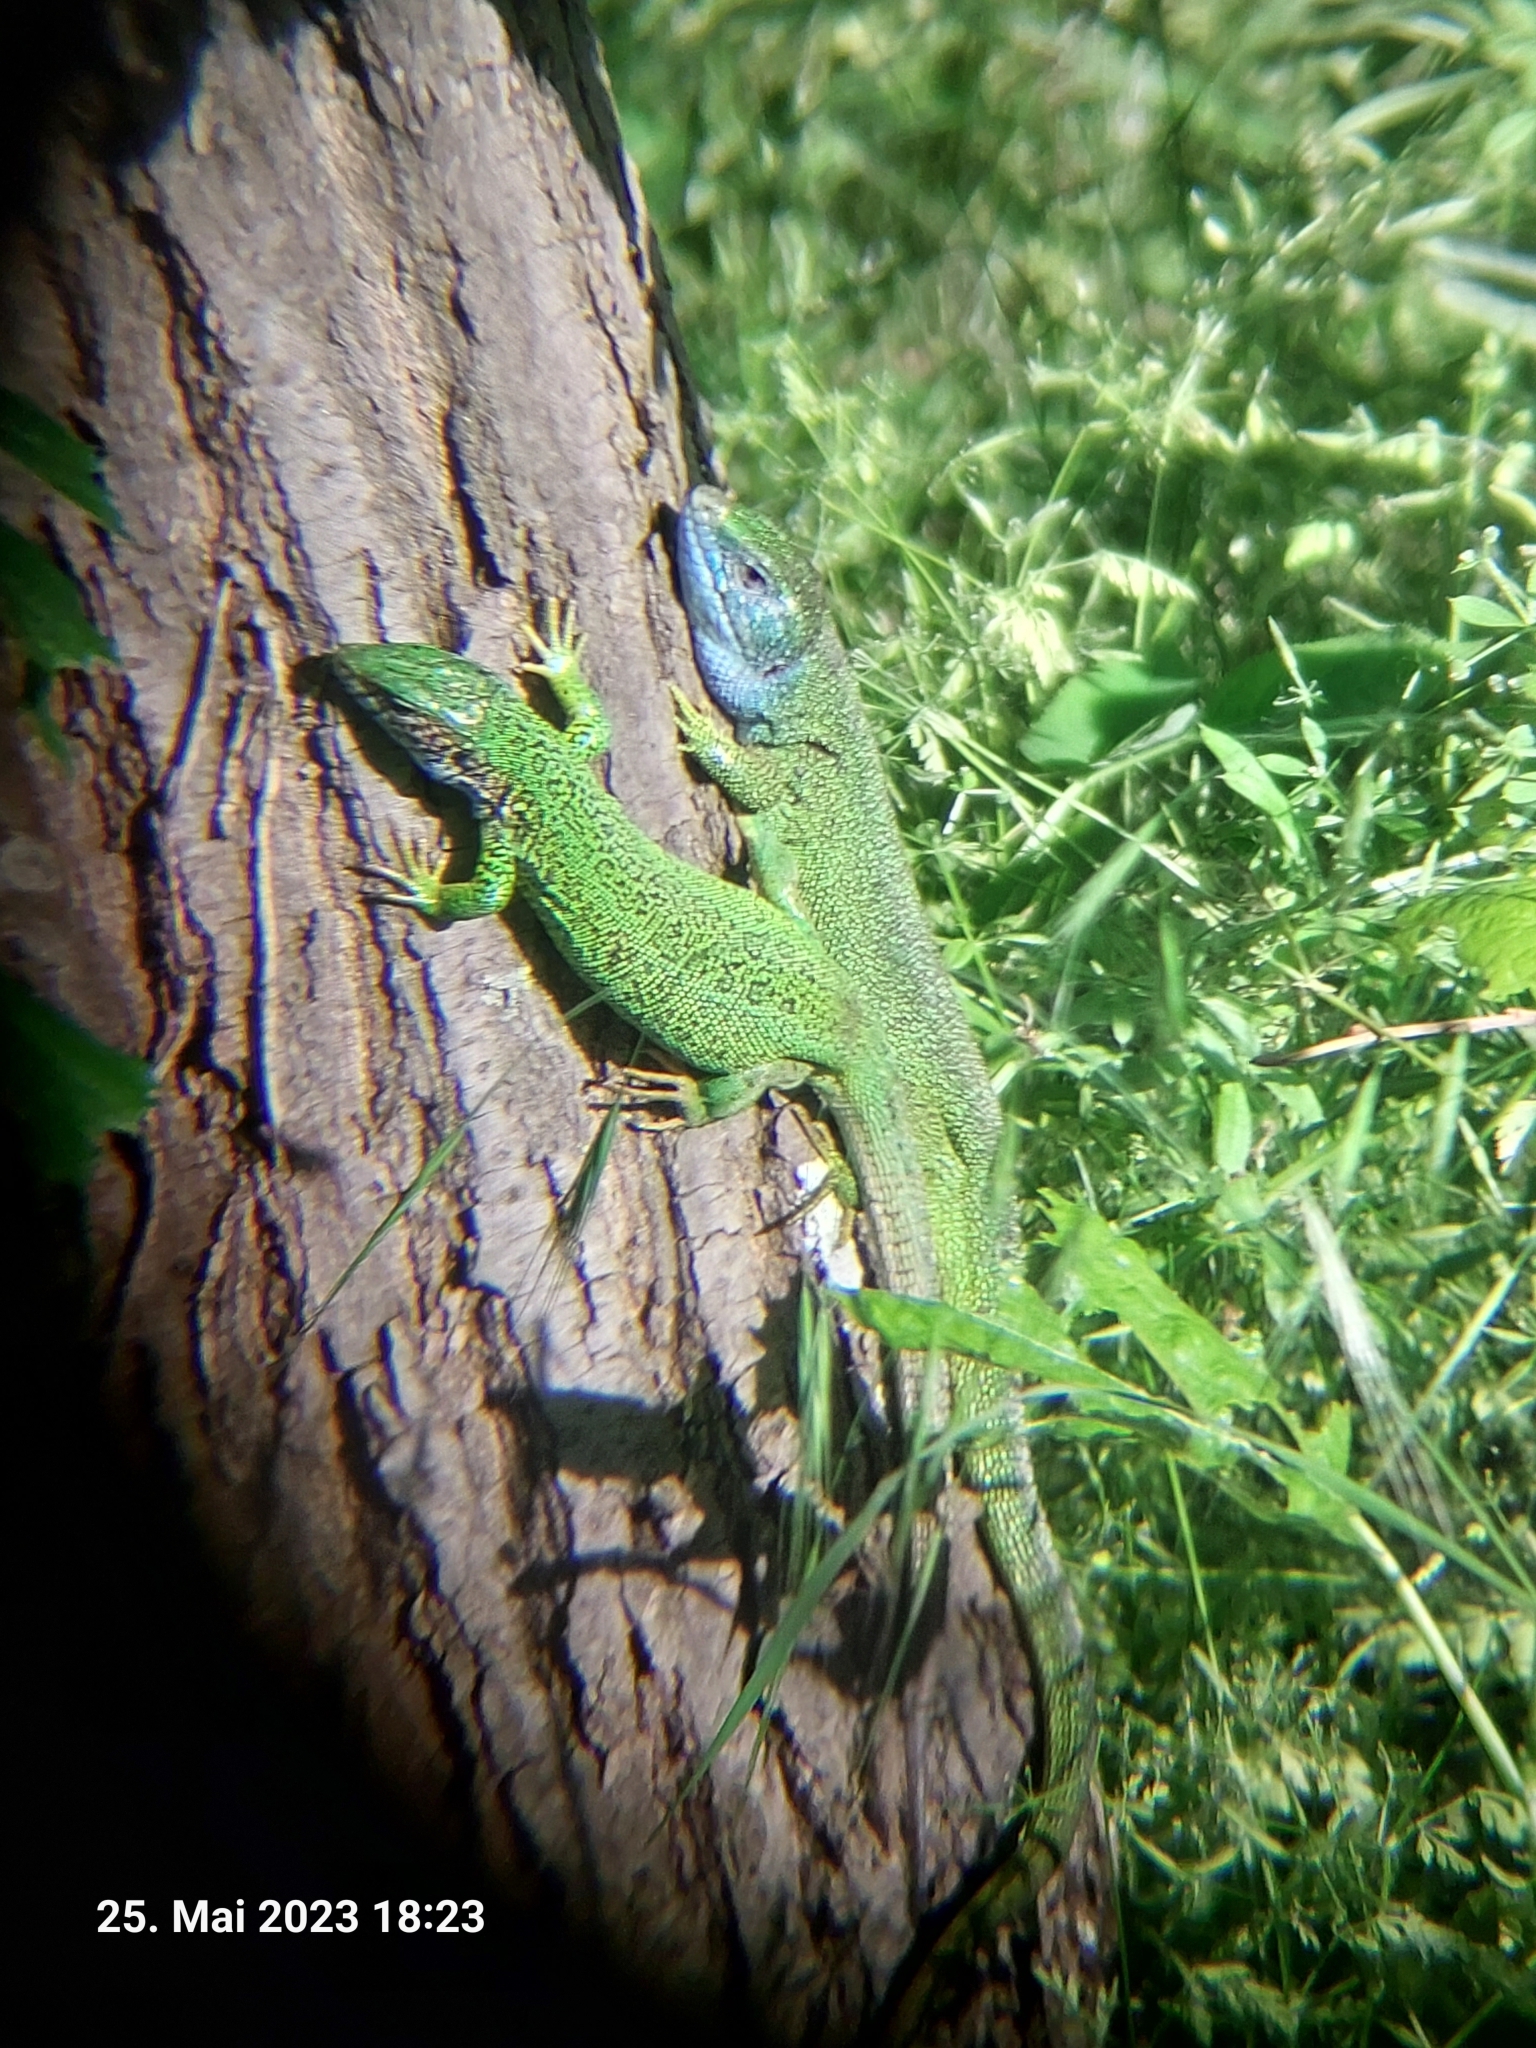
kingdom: Animalia
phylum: Chordata
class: Squamata
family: Lacertidae
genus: Lacerta
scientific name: Lacerta viridis
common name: European green lizard
